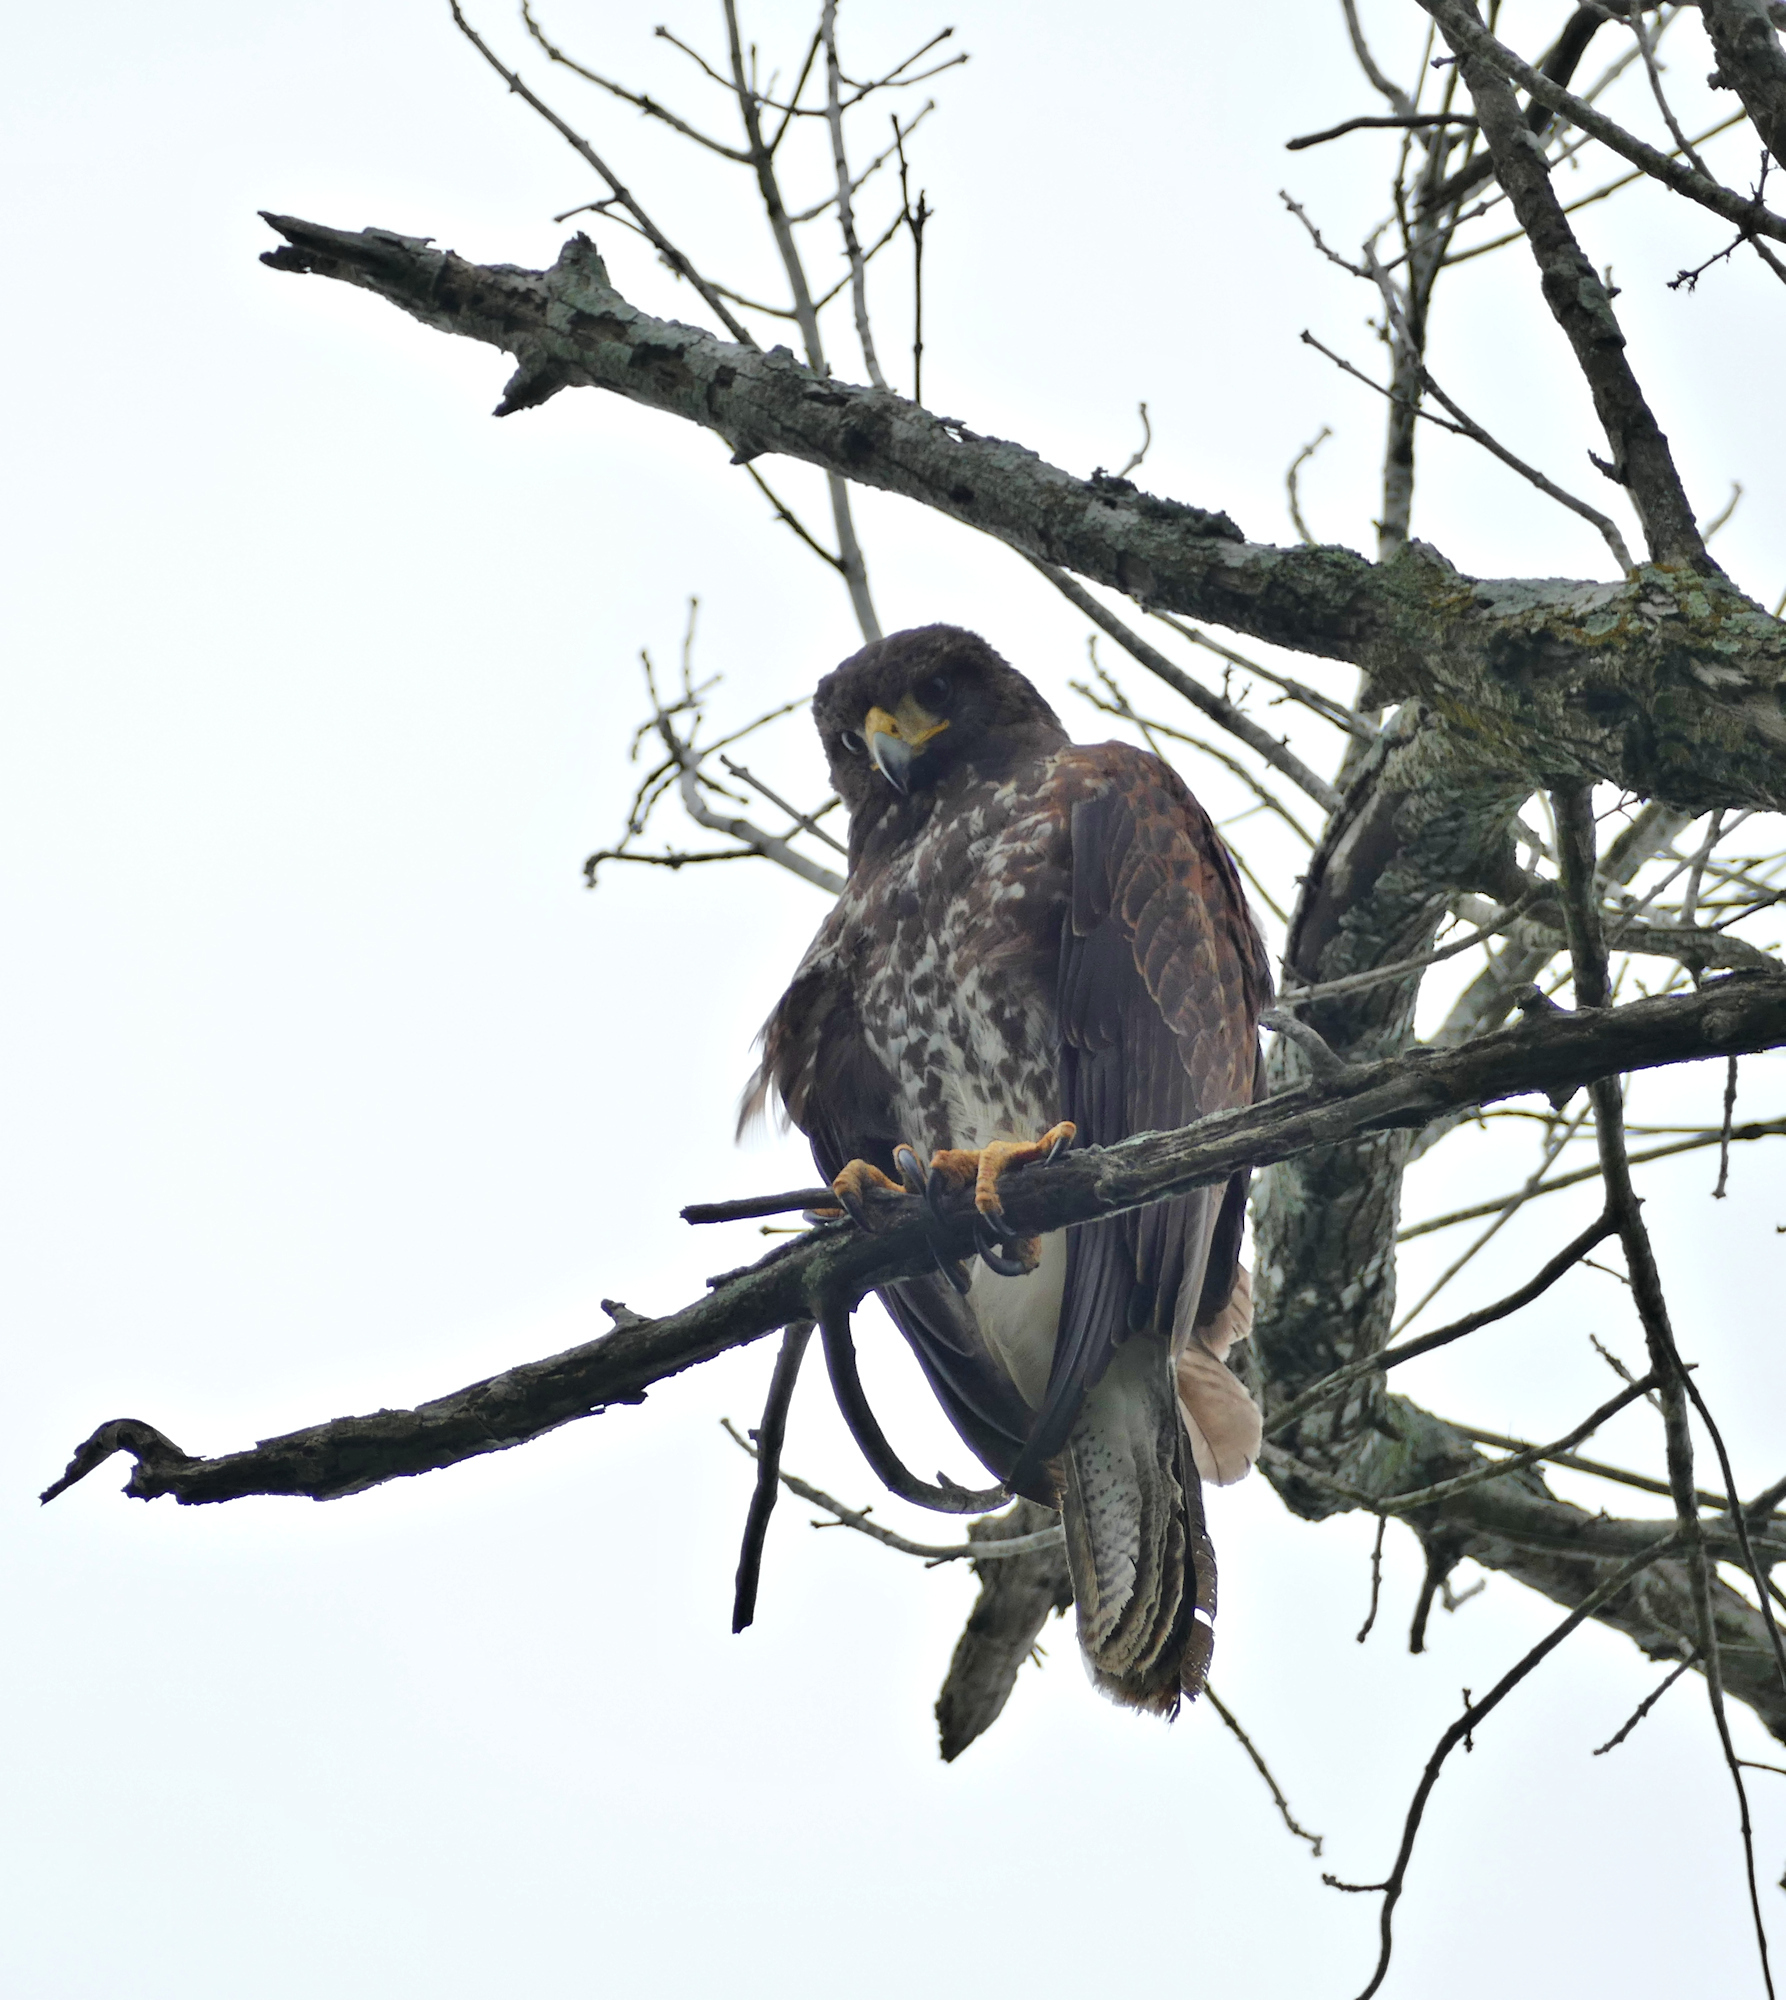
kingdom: Animalia
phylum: Chordata
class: Aves
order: Accipitriformes
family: Accipitridae
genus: Parabuteo
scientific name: Parabuteo unicinctus
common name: Harris's hawk
